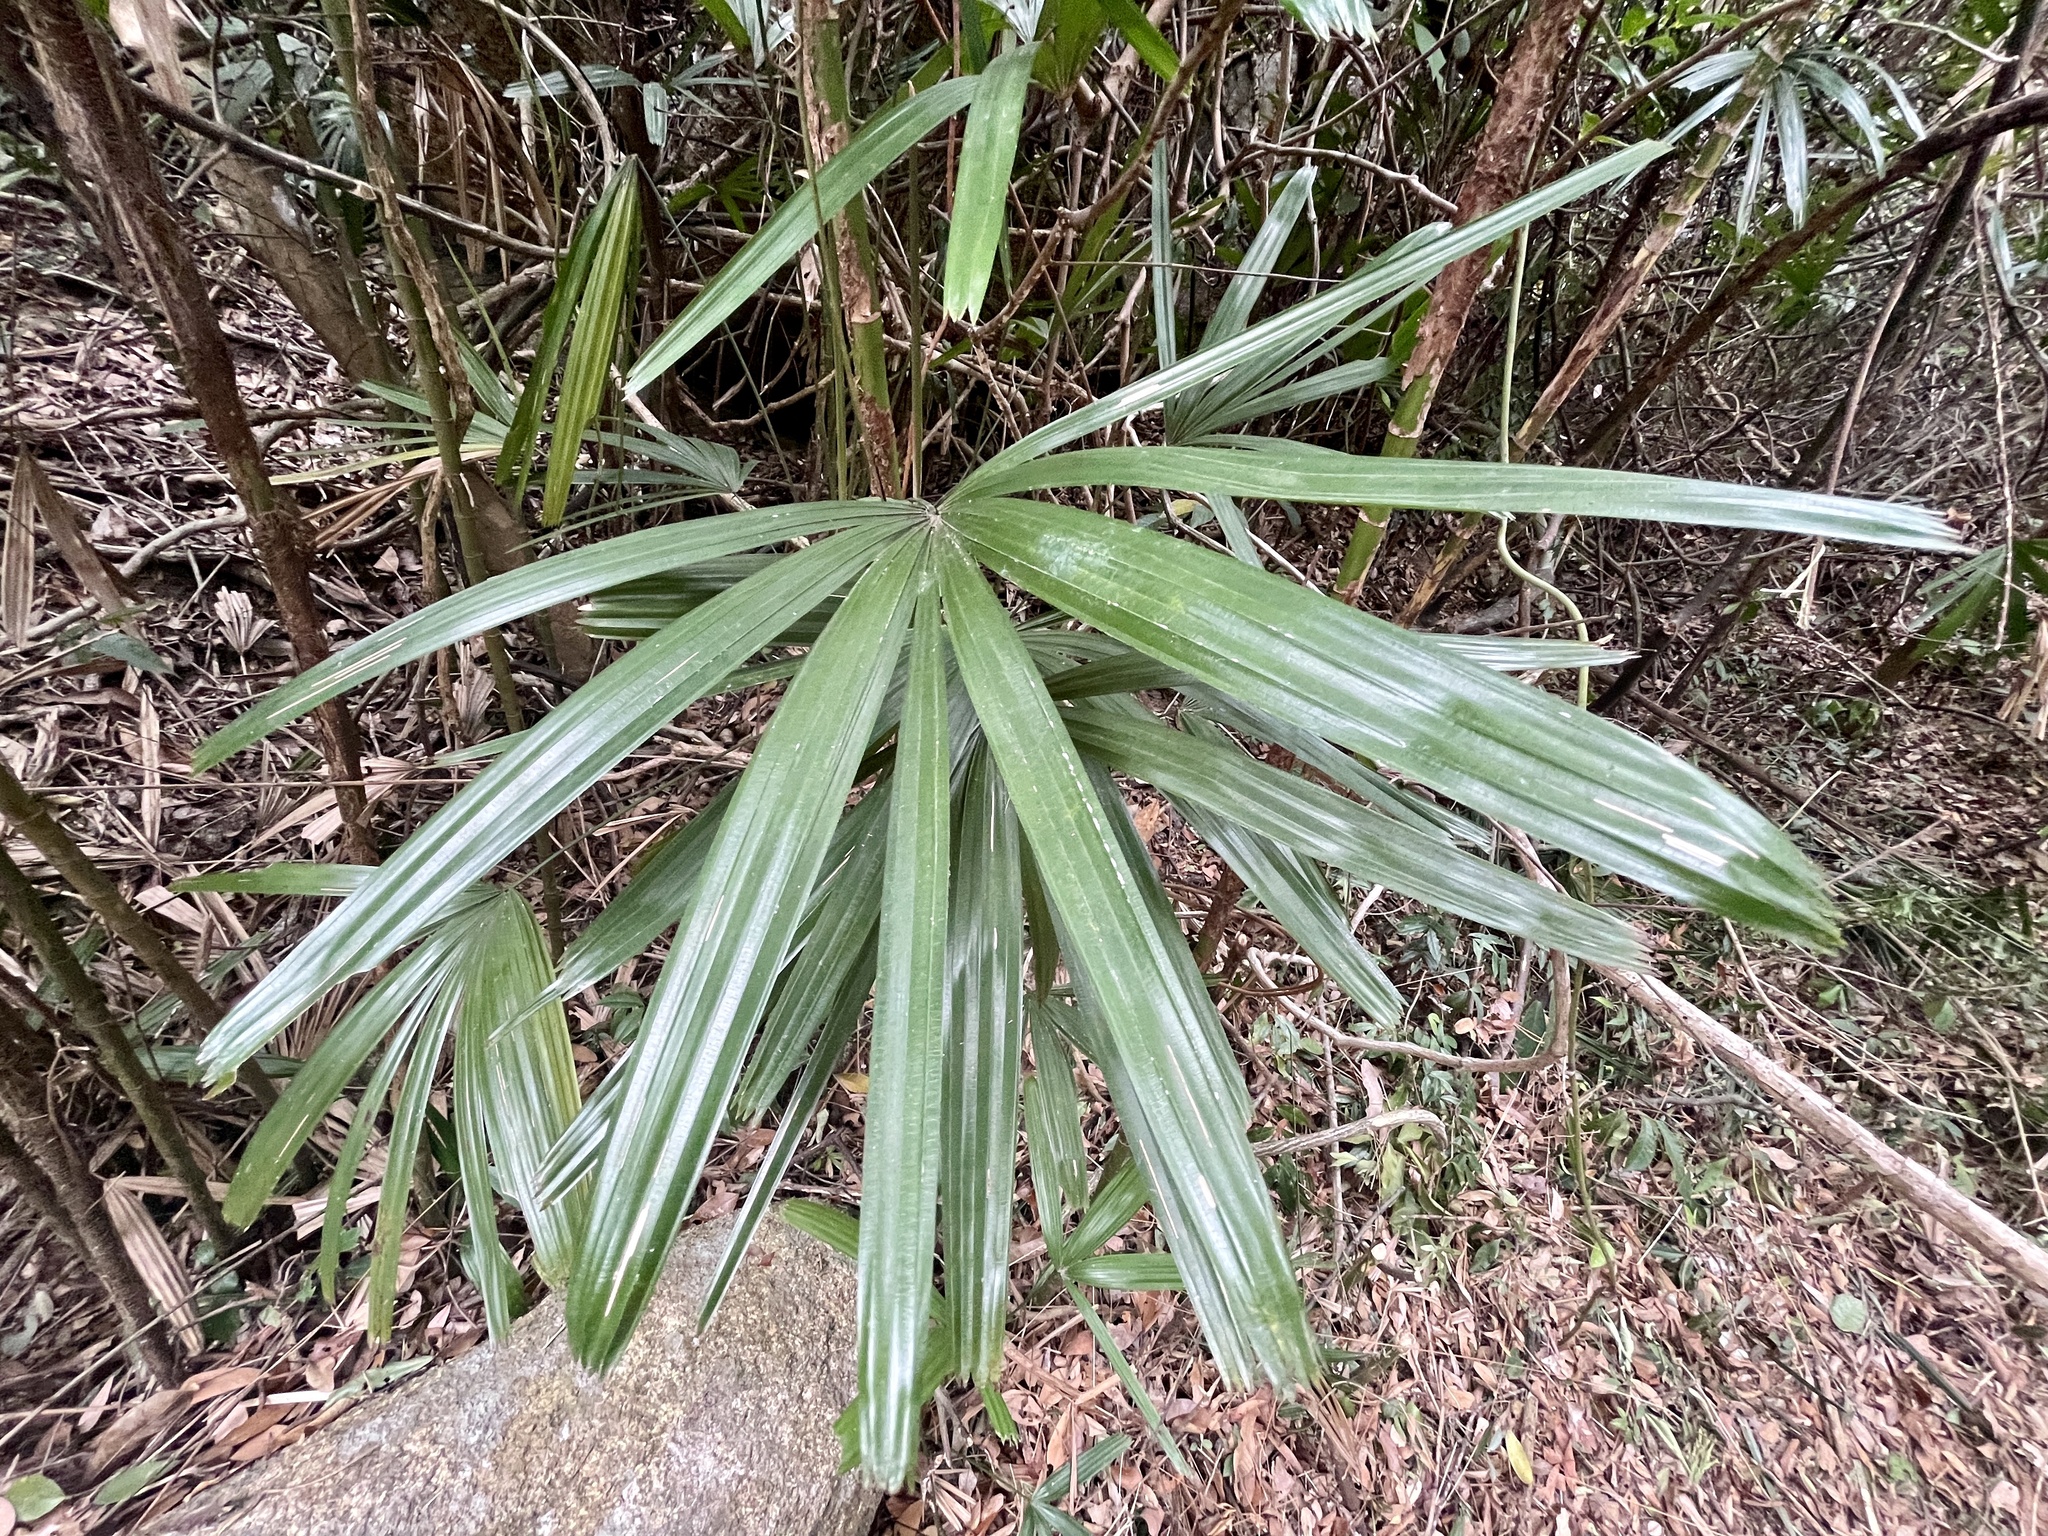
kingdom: Plantae
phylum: Tracheophyta
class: Liliopsida
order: Arecales
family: Arecaceae
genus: Rhapis
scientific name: Rhapis excelsa
